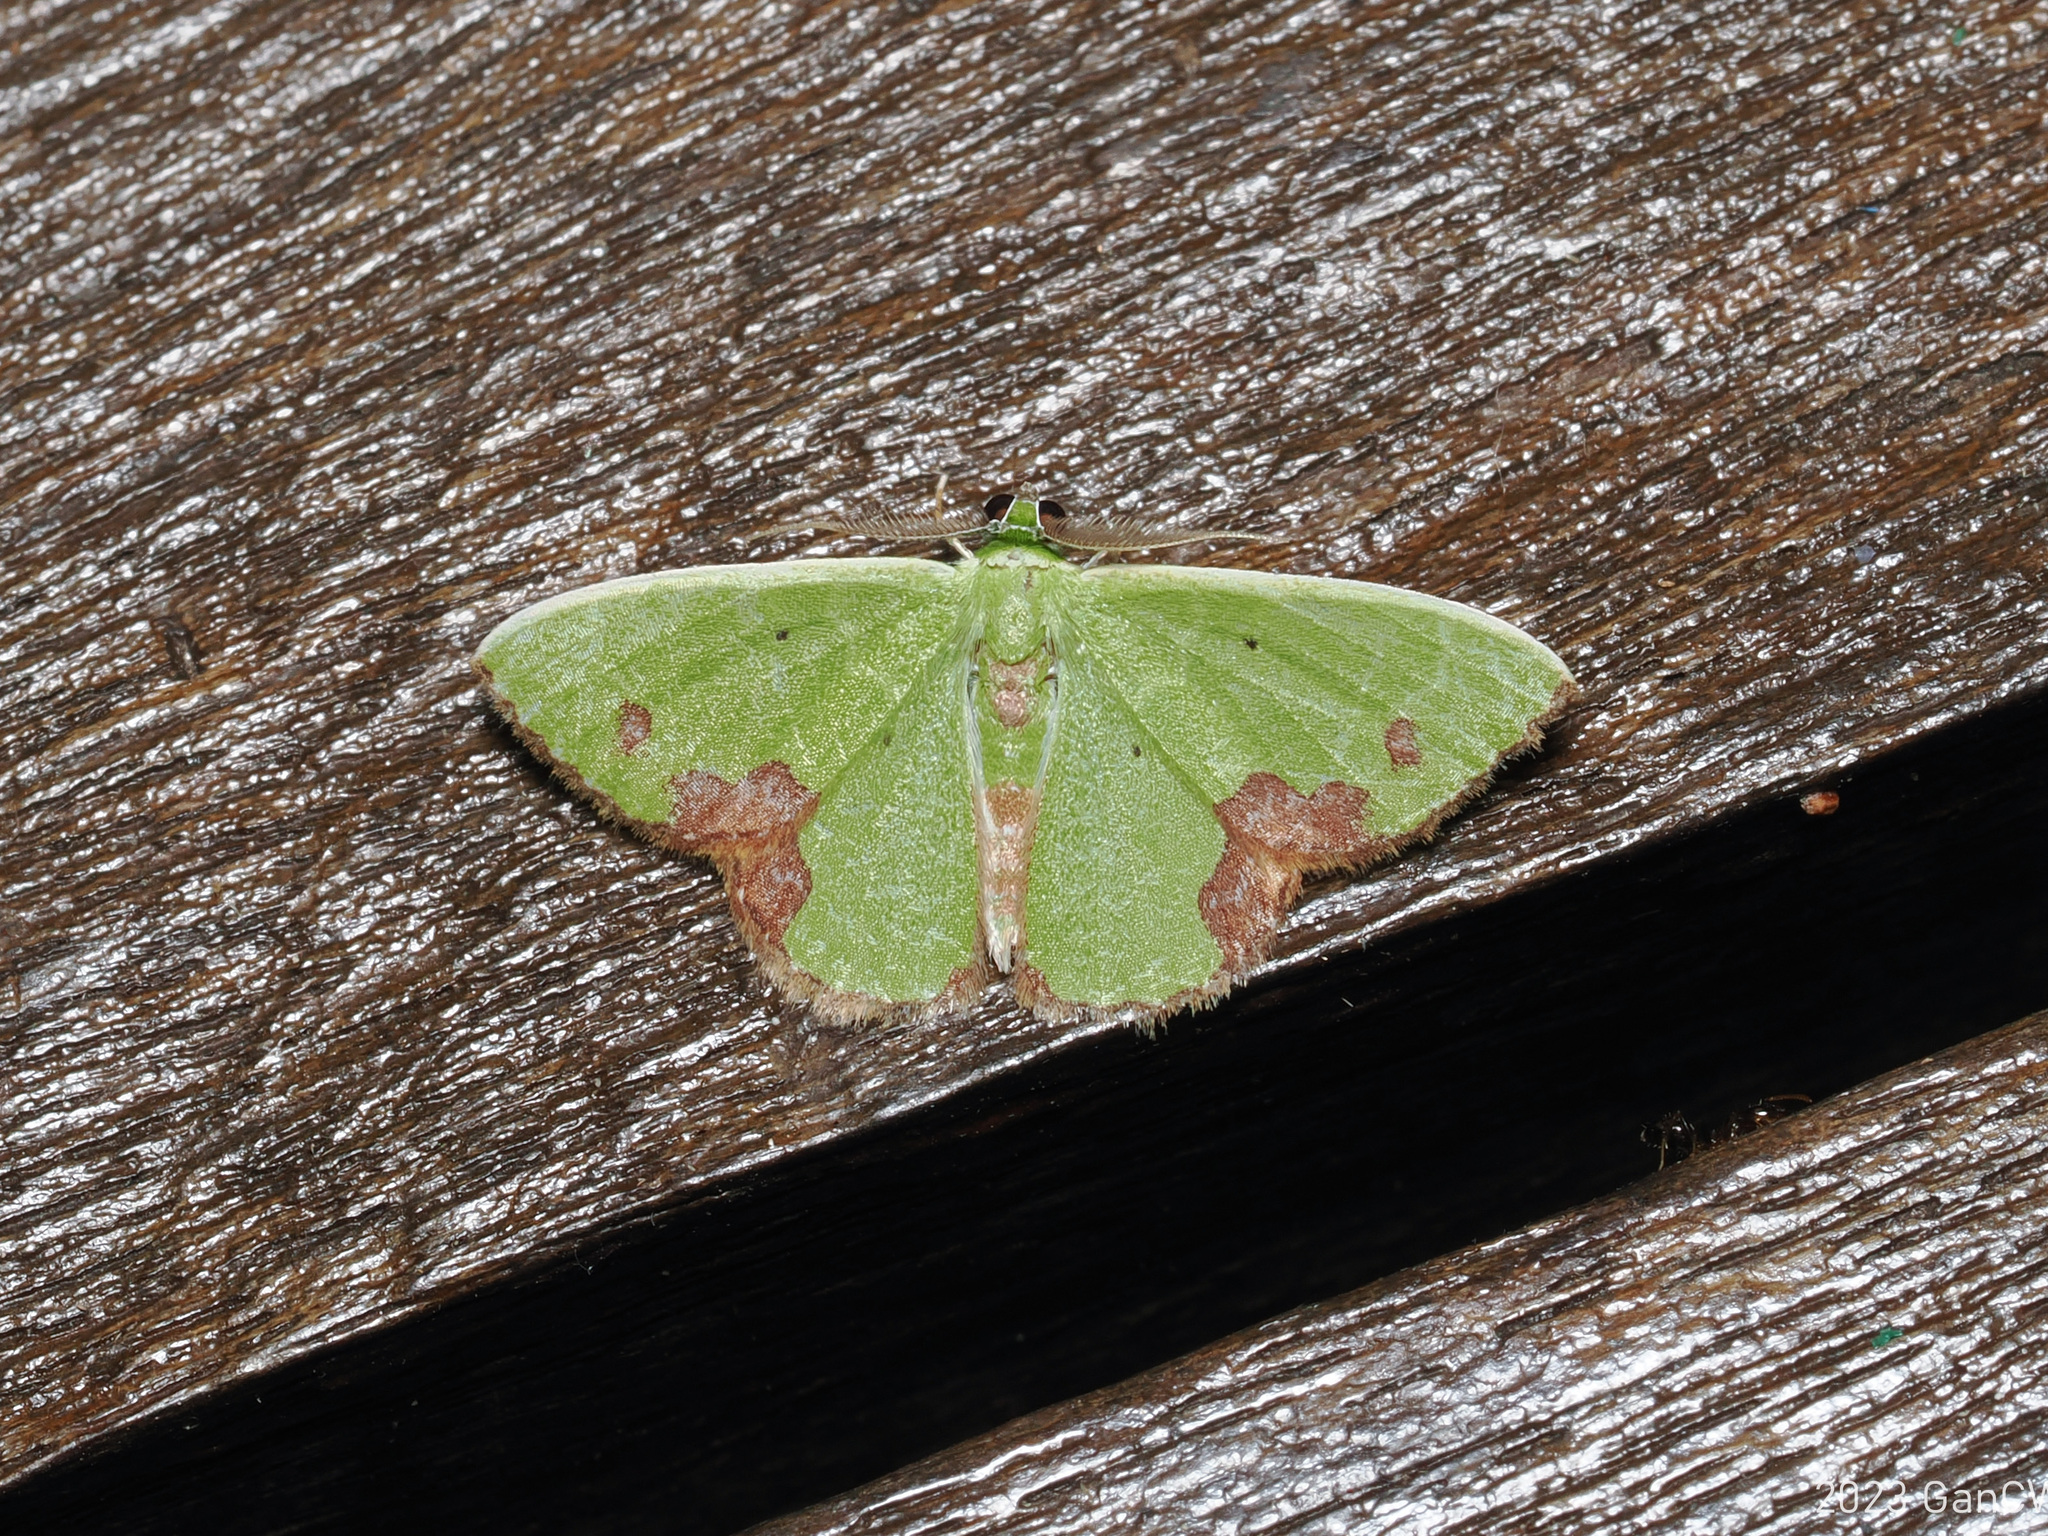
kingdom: Animalia
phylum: Arthropoda
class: Insecta
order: Lepidoptera
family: Geometridae
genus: Comibaena
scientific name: Comibaena attenuata
